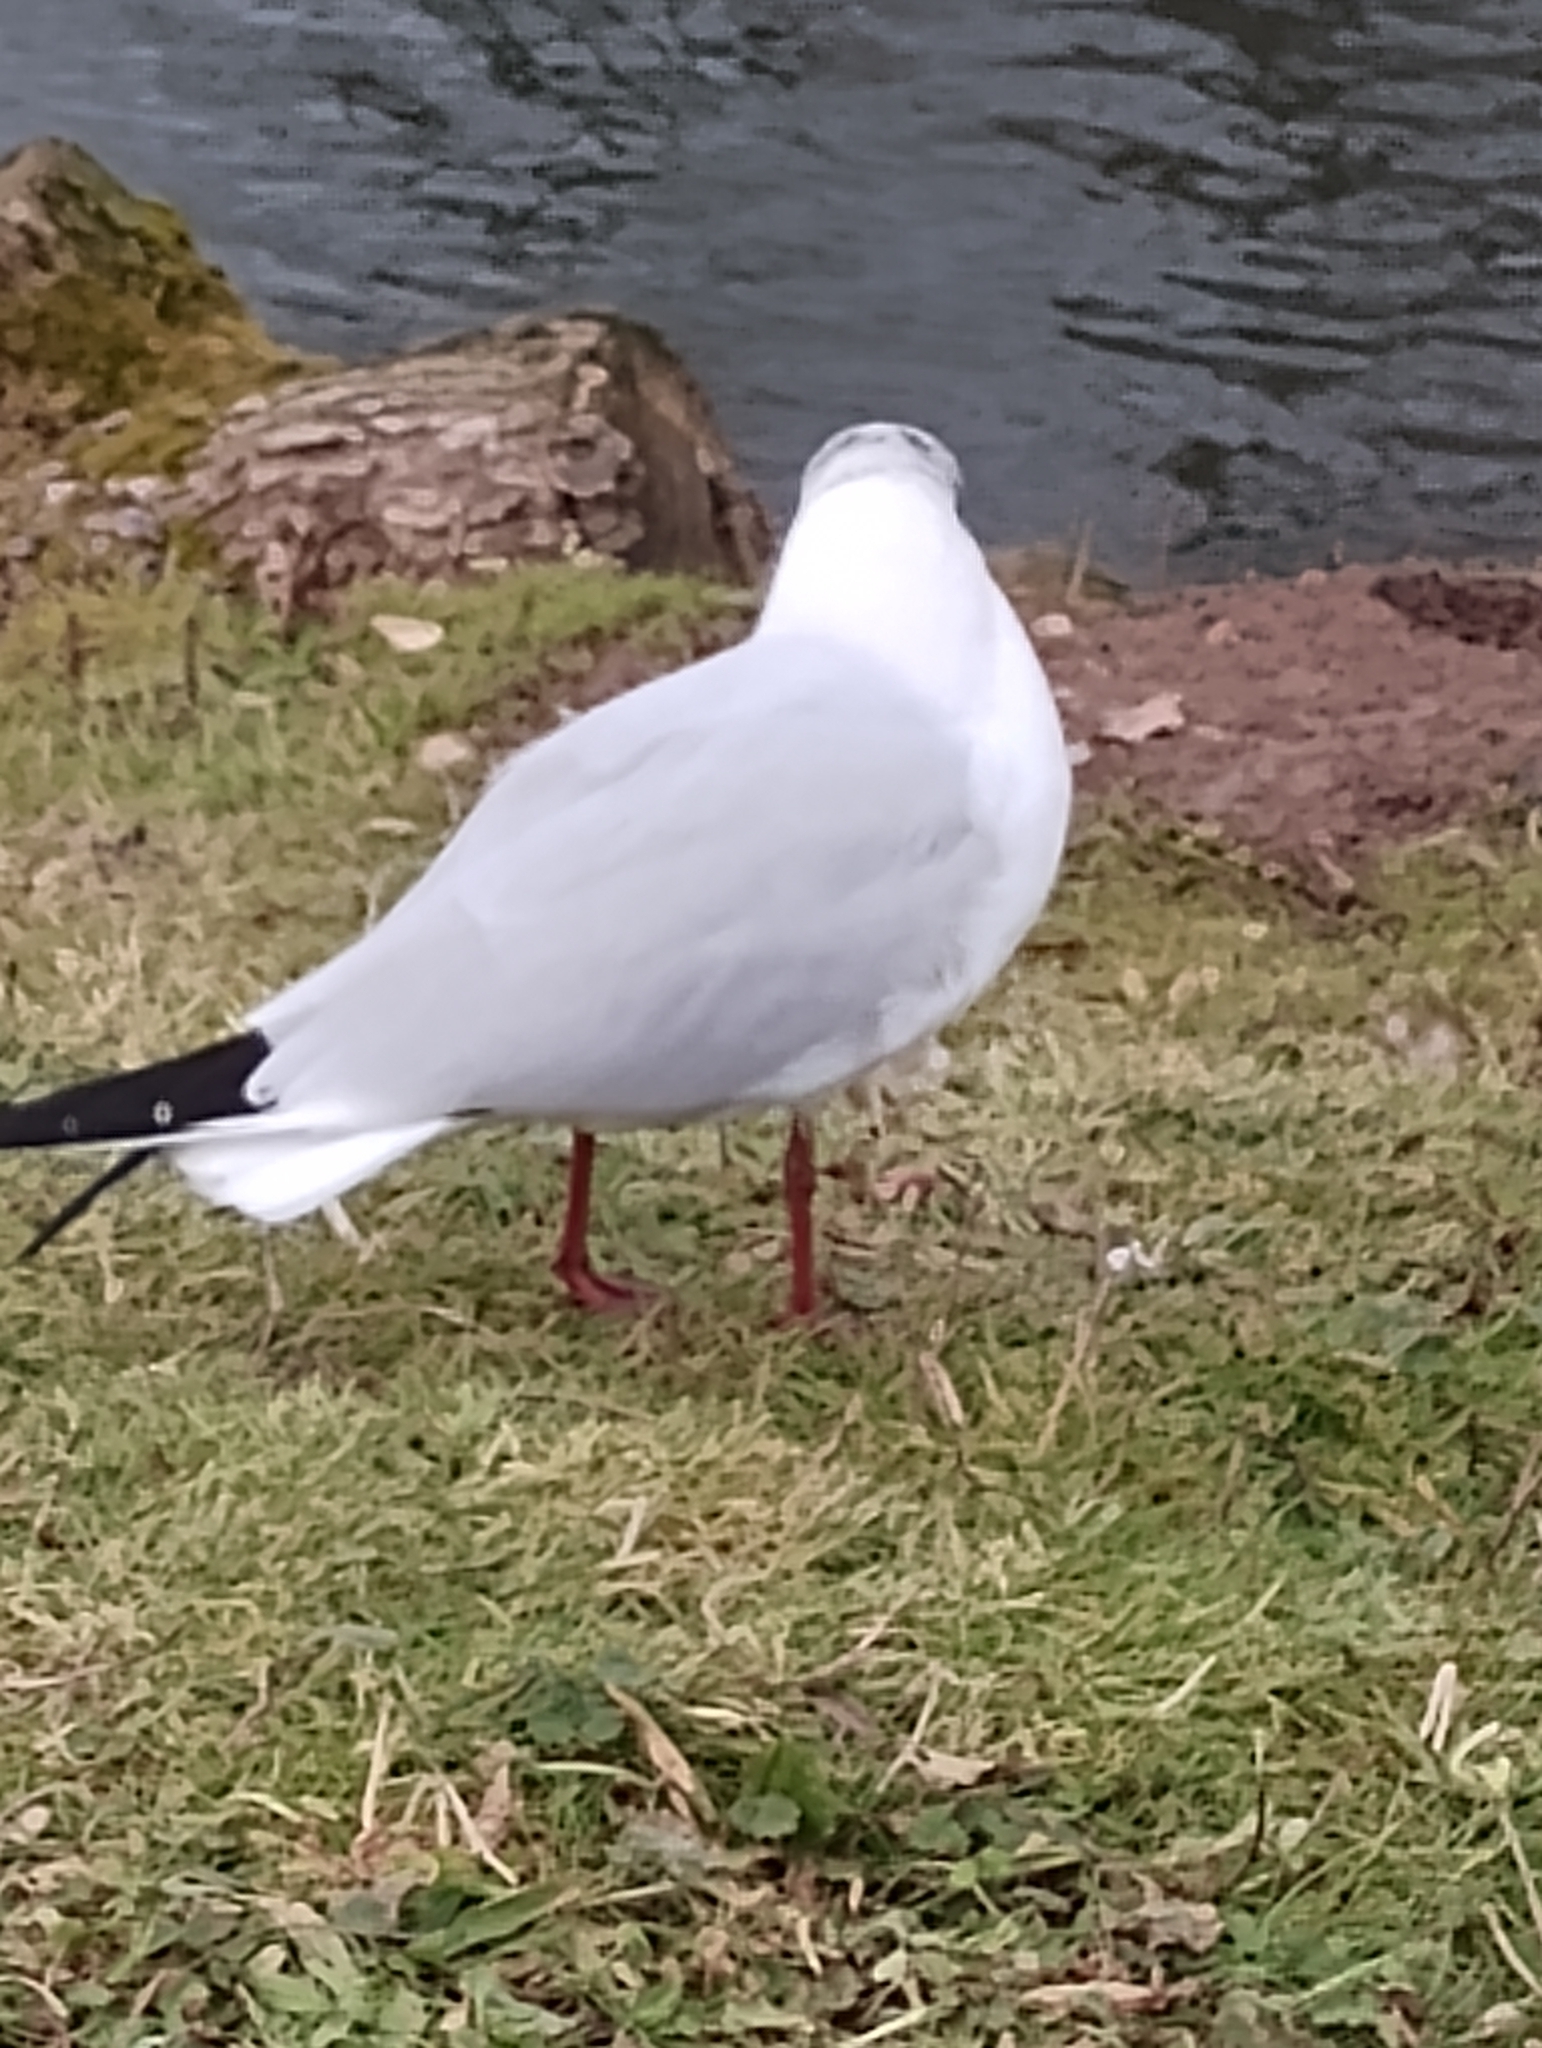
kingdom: Animalia
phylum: Chordata
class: Aves
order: Charadriiformes
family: Laridae
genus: Chroicocephalus
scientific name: Chroicocephalus ridibundus
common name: Black-headed gull
